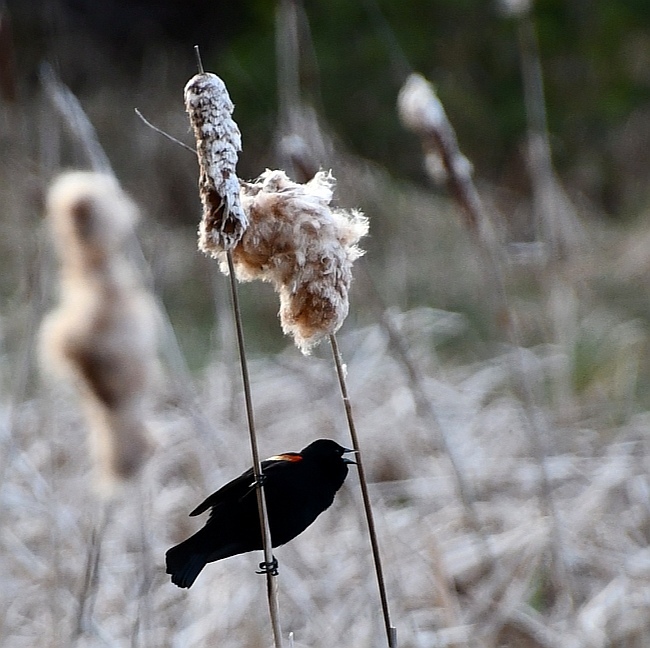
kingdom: Animalia
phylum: Chordata
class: Aves
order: Passeriformes
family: Icteridae
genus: Agelaius
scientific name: Agelaius phoeniceus
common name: Red-winged blackbird
